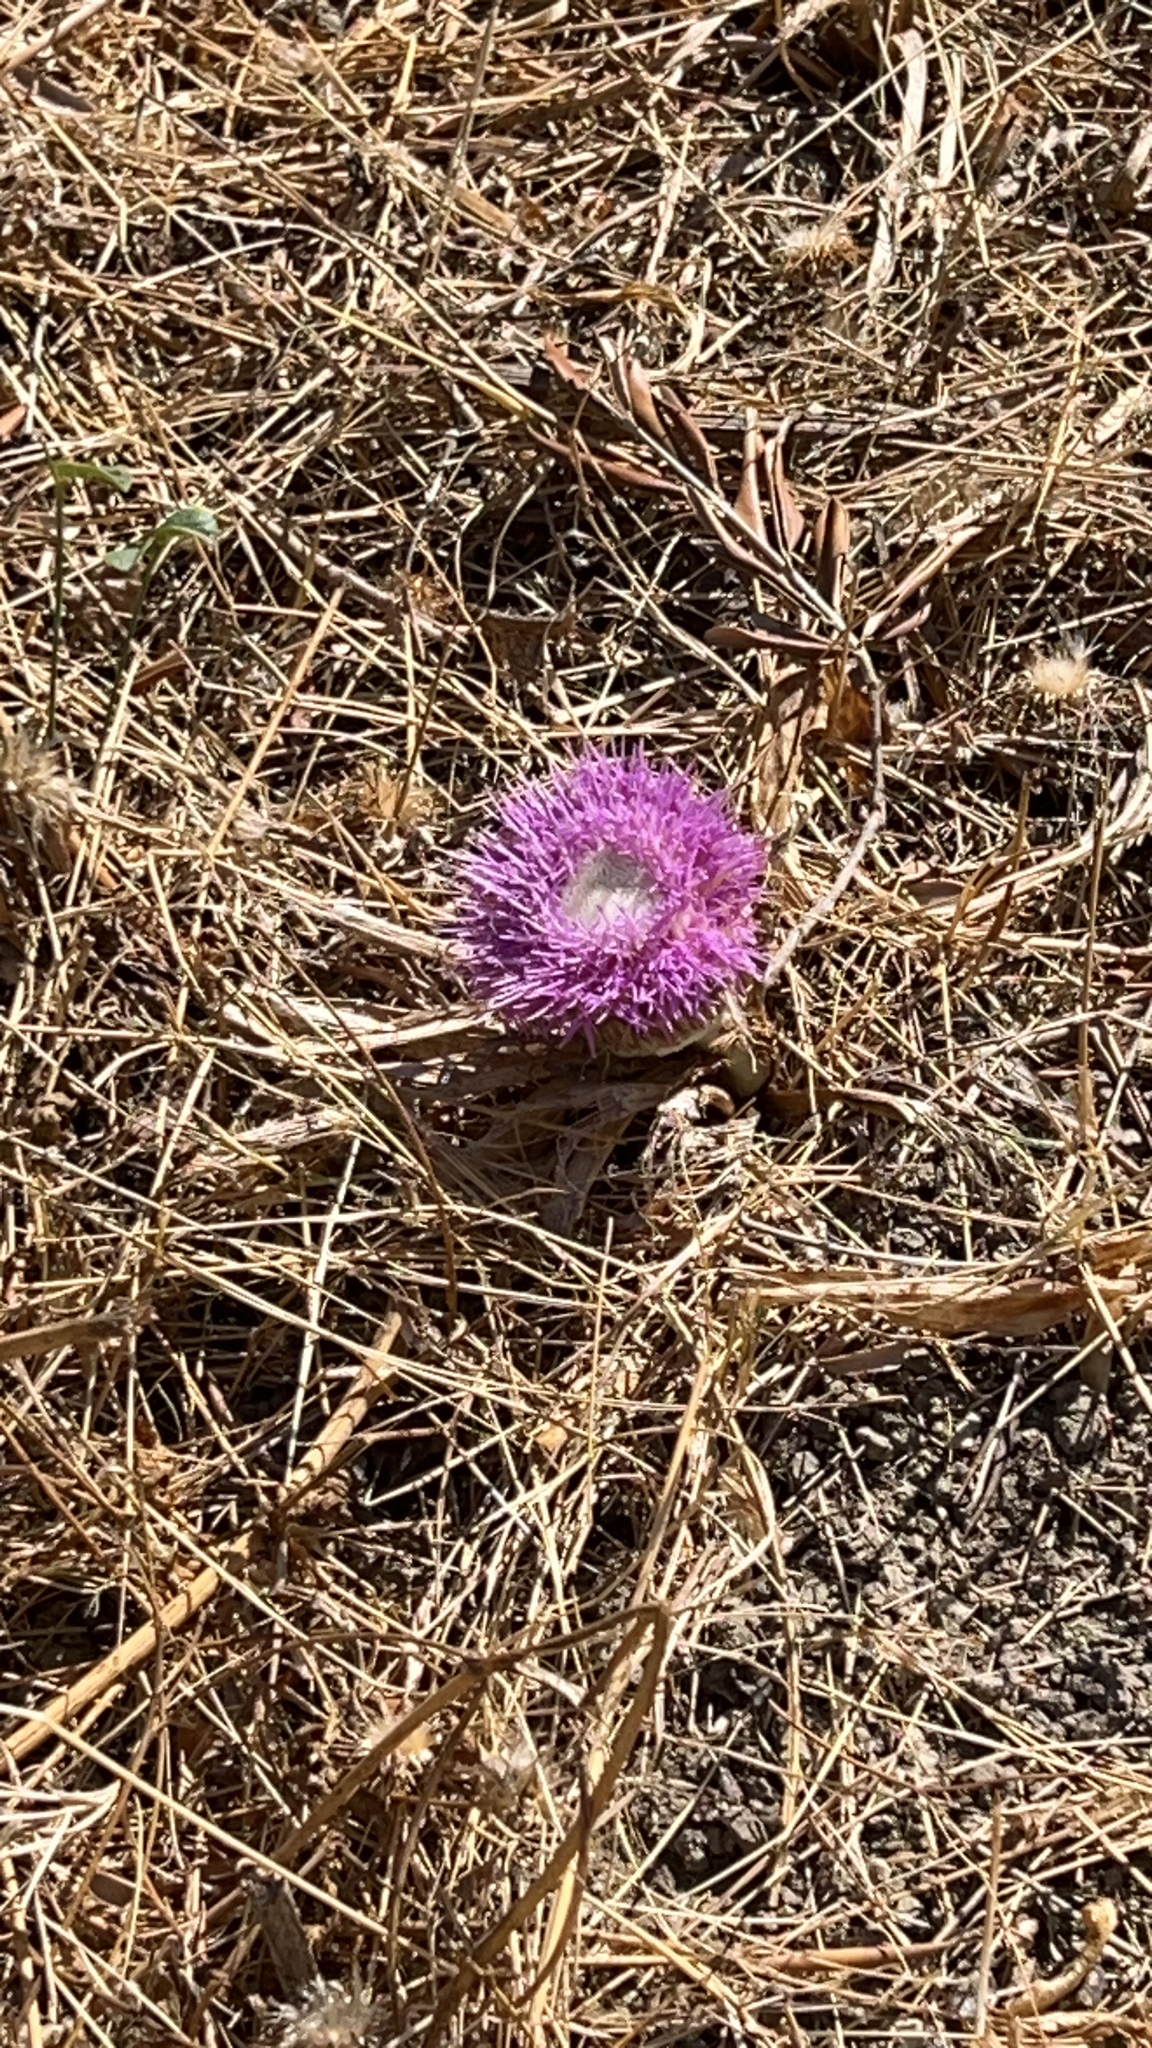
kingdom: Plantae
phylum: Tracheophyta
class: Magnoliopsida
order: Asterales
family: Asteraceae
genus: Chamaeleon
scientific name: Chamaeleon gummifer
